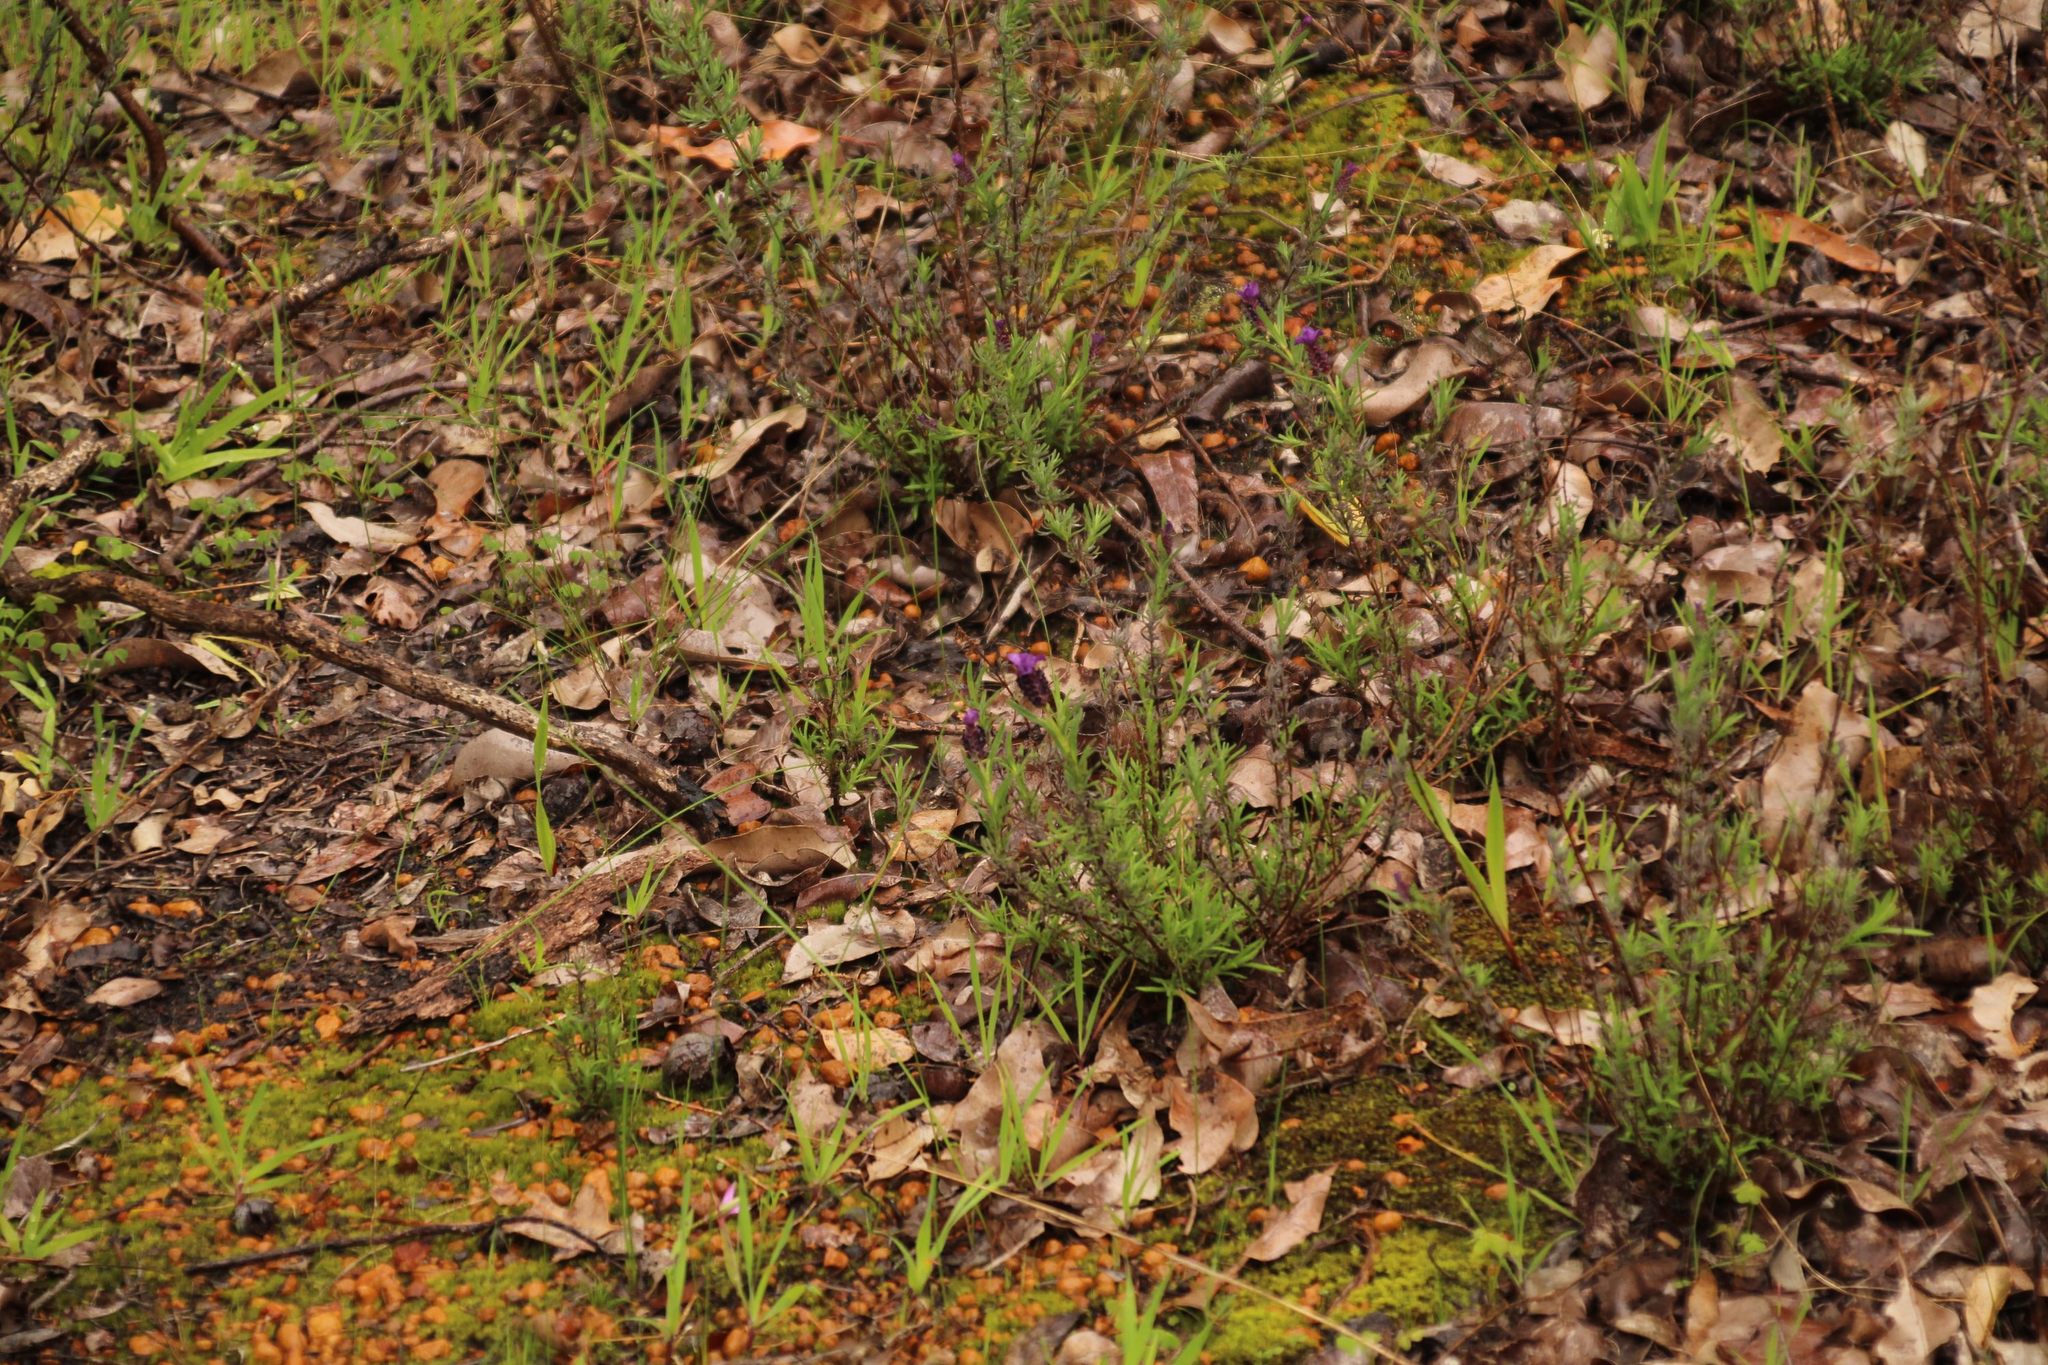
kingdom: Plantae
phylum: Tracheophyta
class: Magnoliopsida
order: Lamiales
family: Lamiaceae
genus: Lavandula
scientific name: Lavandula stoechas
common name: French lavender
